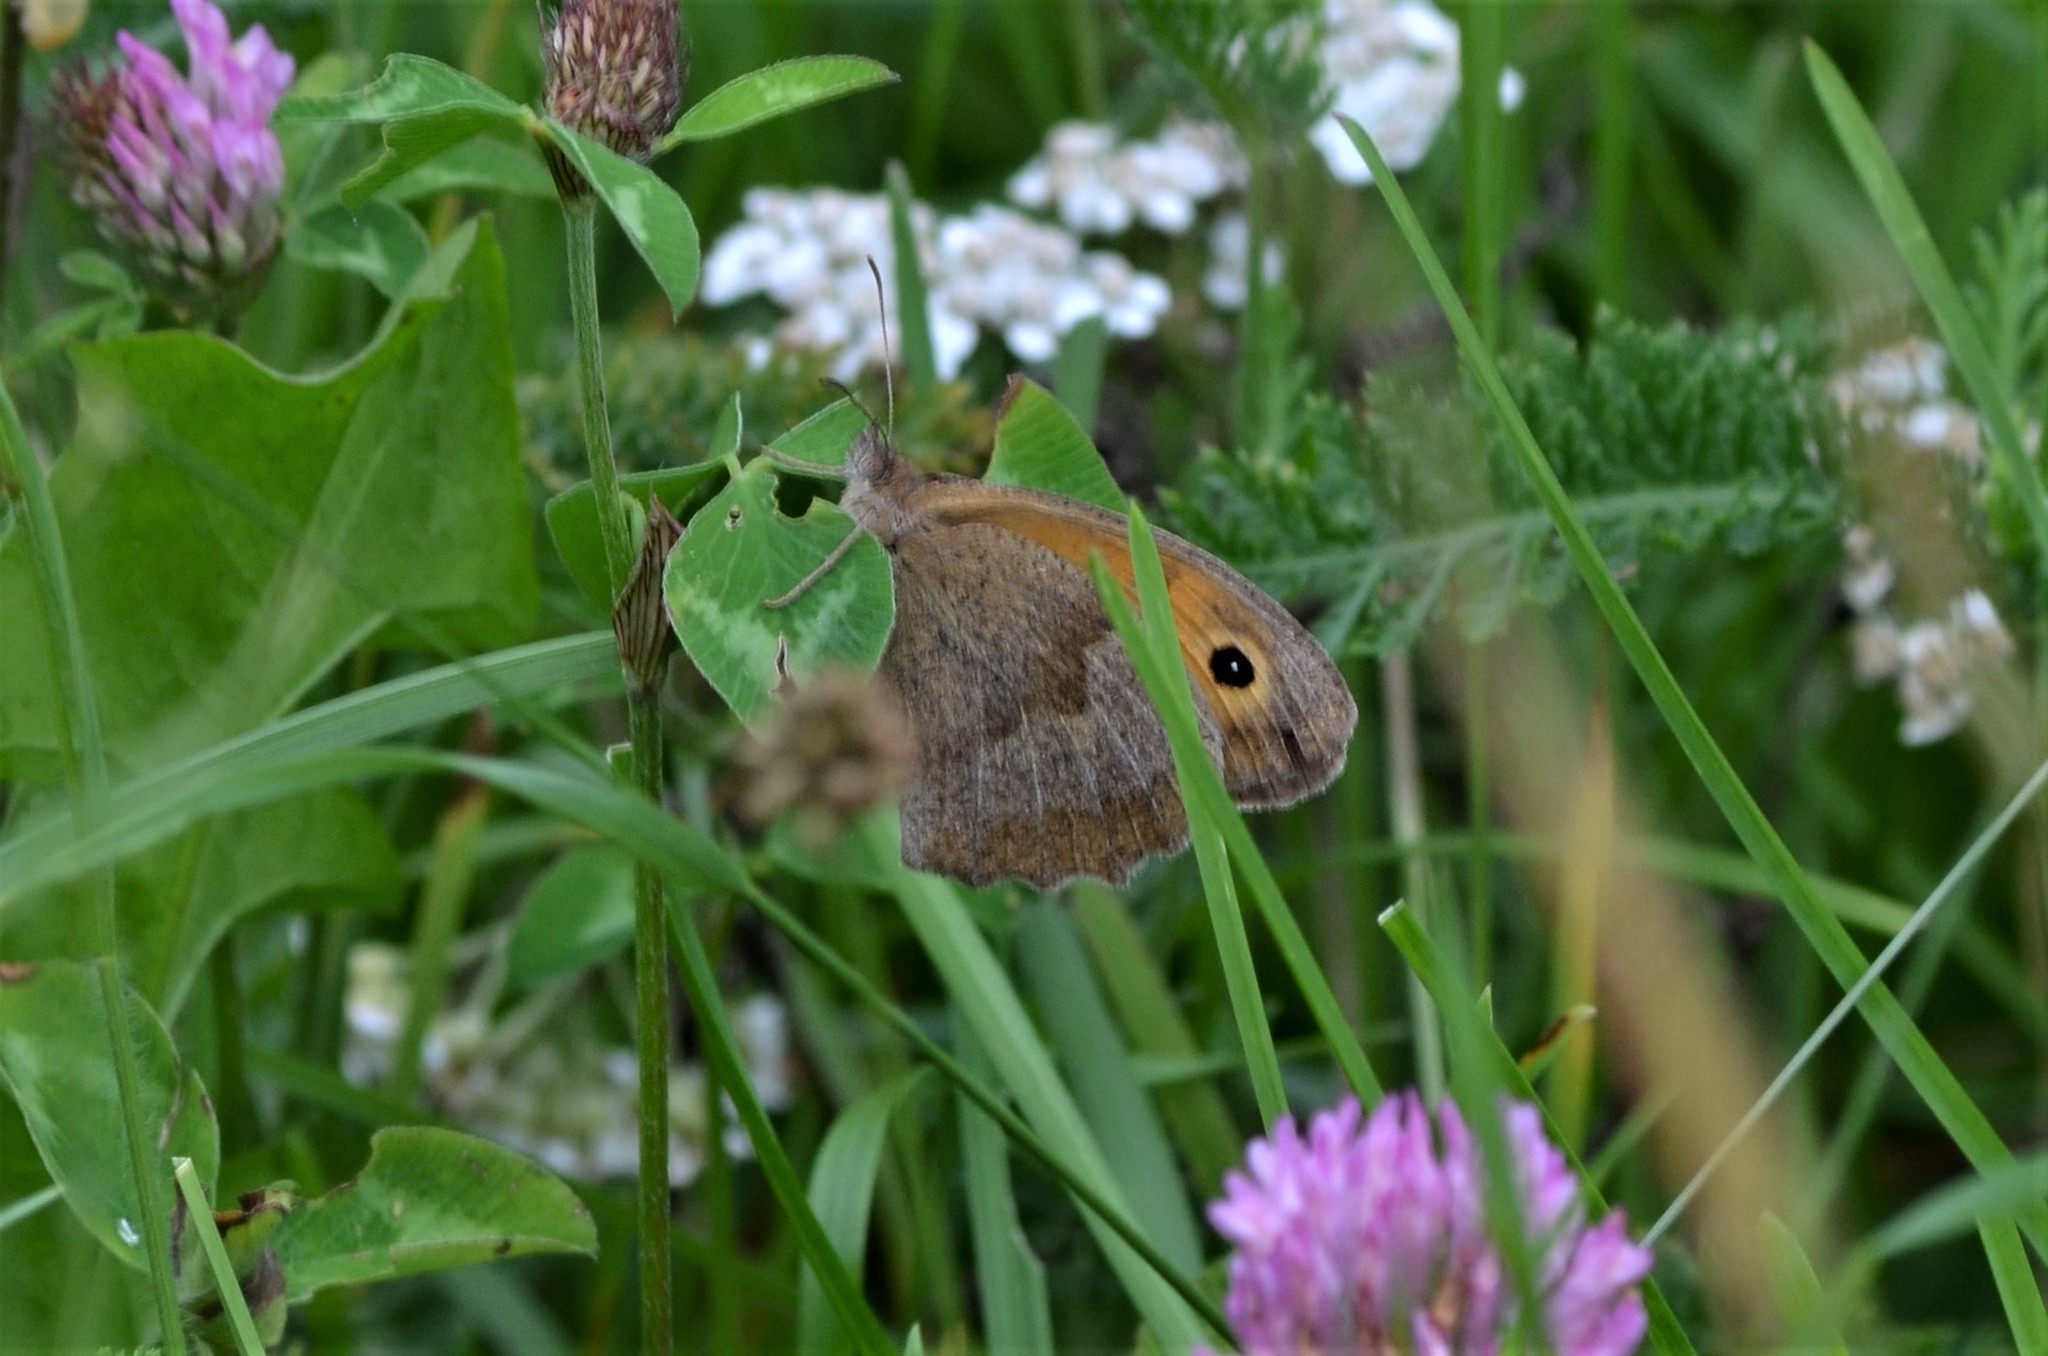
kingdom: Animalia
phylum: Arthropoda
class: Insecta
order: Lepidoptera
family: Nymphalidae
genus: Maniola
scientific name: Maniola jurtina
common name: Meadow brown
